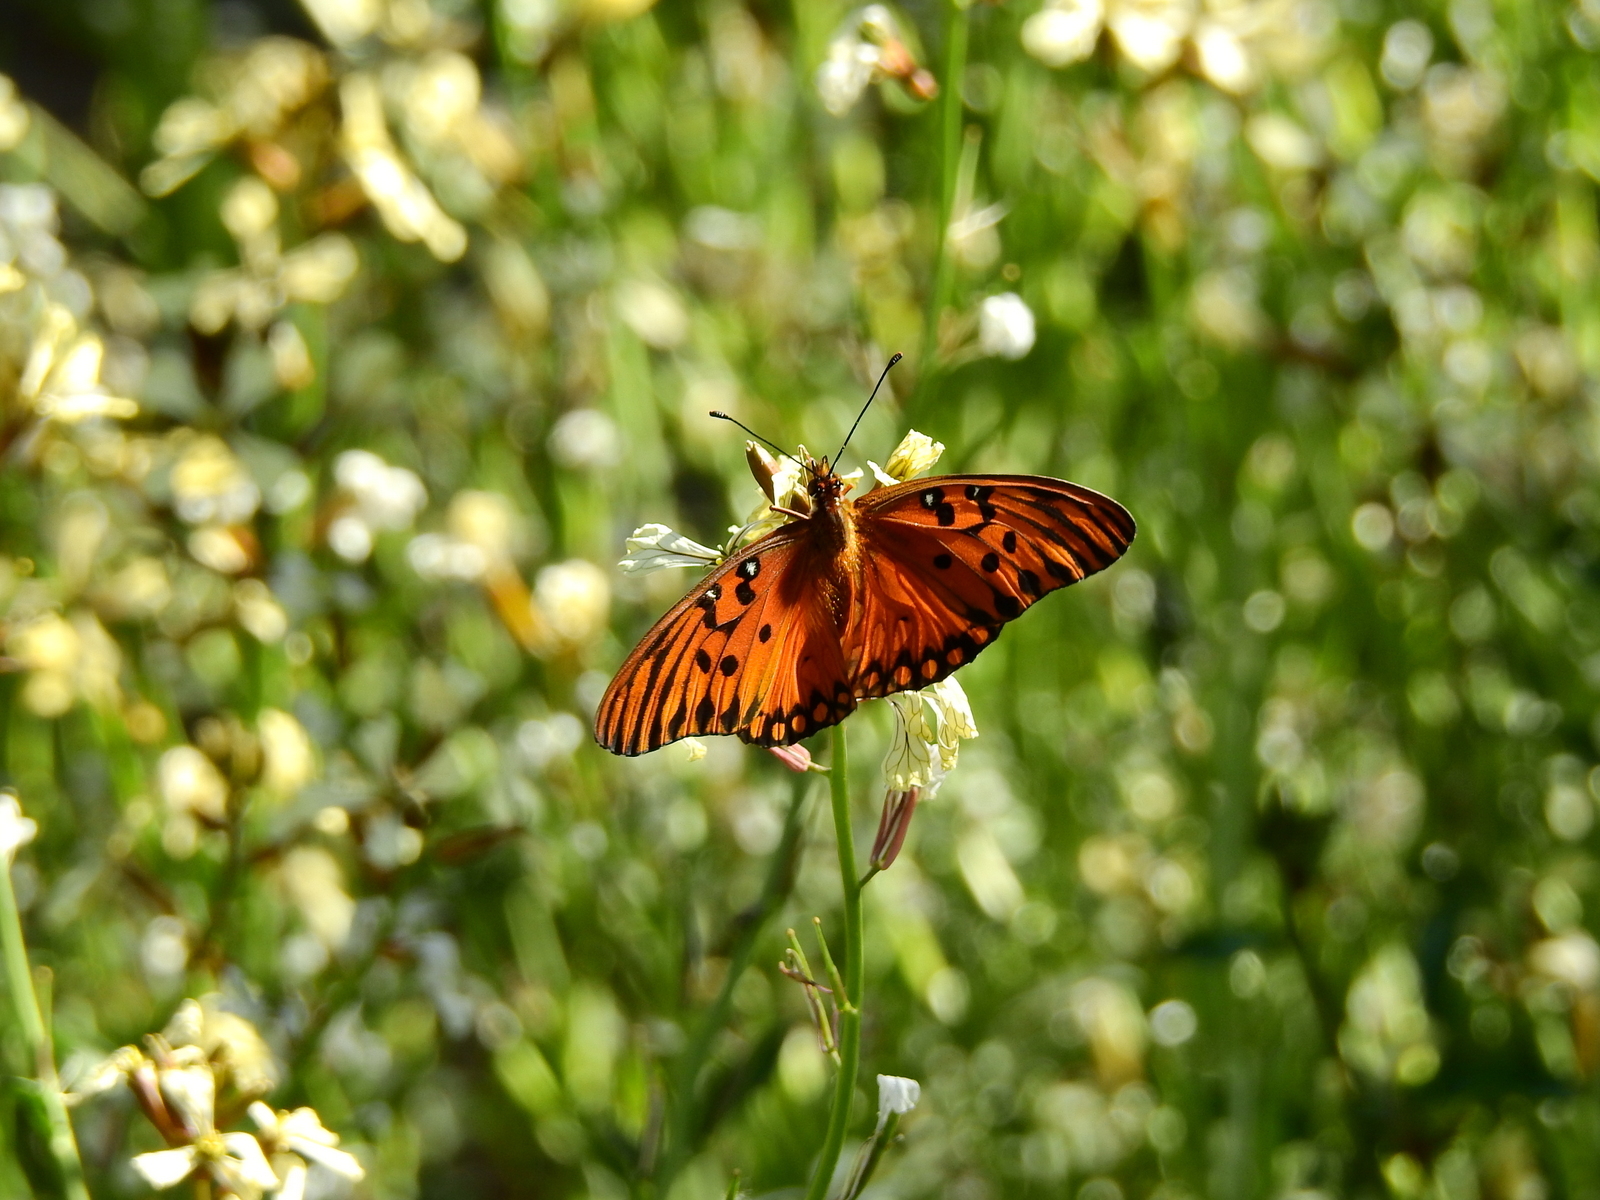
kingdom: Animalia
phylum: Arthropoda
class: Insecta
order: Lepidoptera
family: Nymphalidae
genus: Dione
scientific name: Dione vanillae
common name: Gulf fritillary
